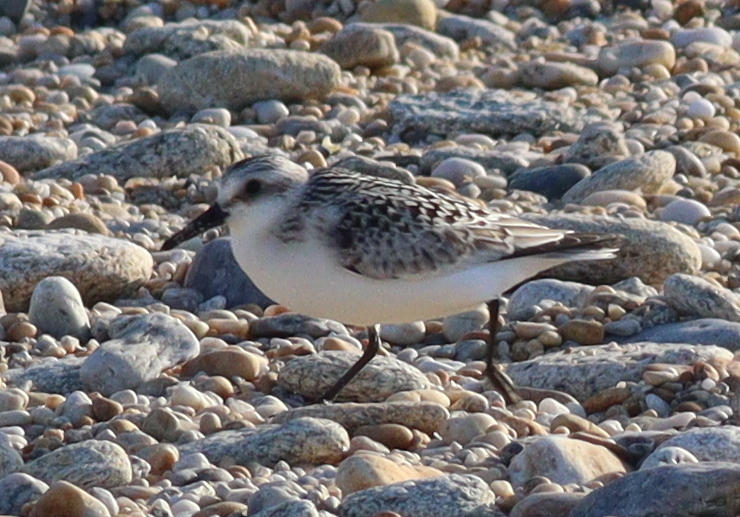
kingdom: Animalia
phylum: Chordata
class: Aves
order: Charadriiformes
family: Scolopacidae
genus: Calidris
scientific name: Calidris alba
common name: Sanderling
